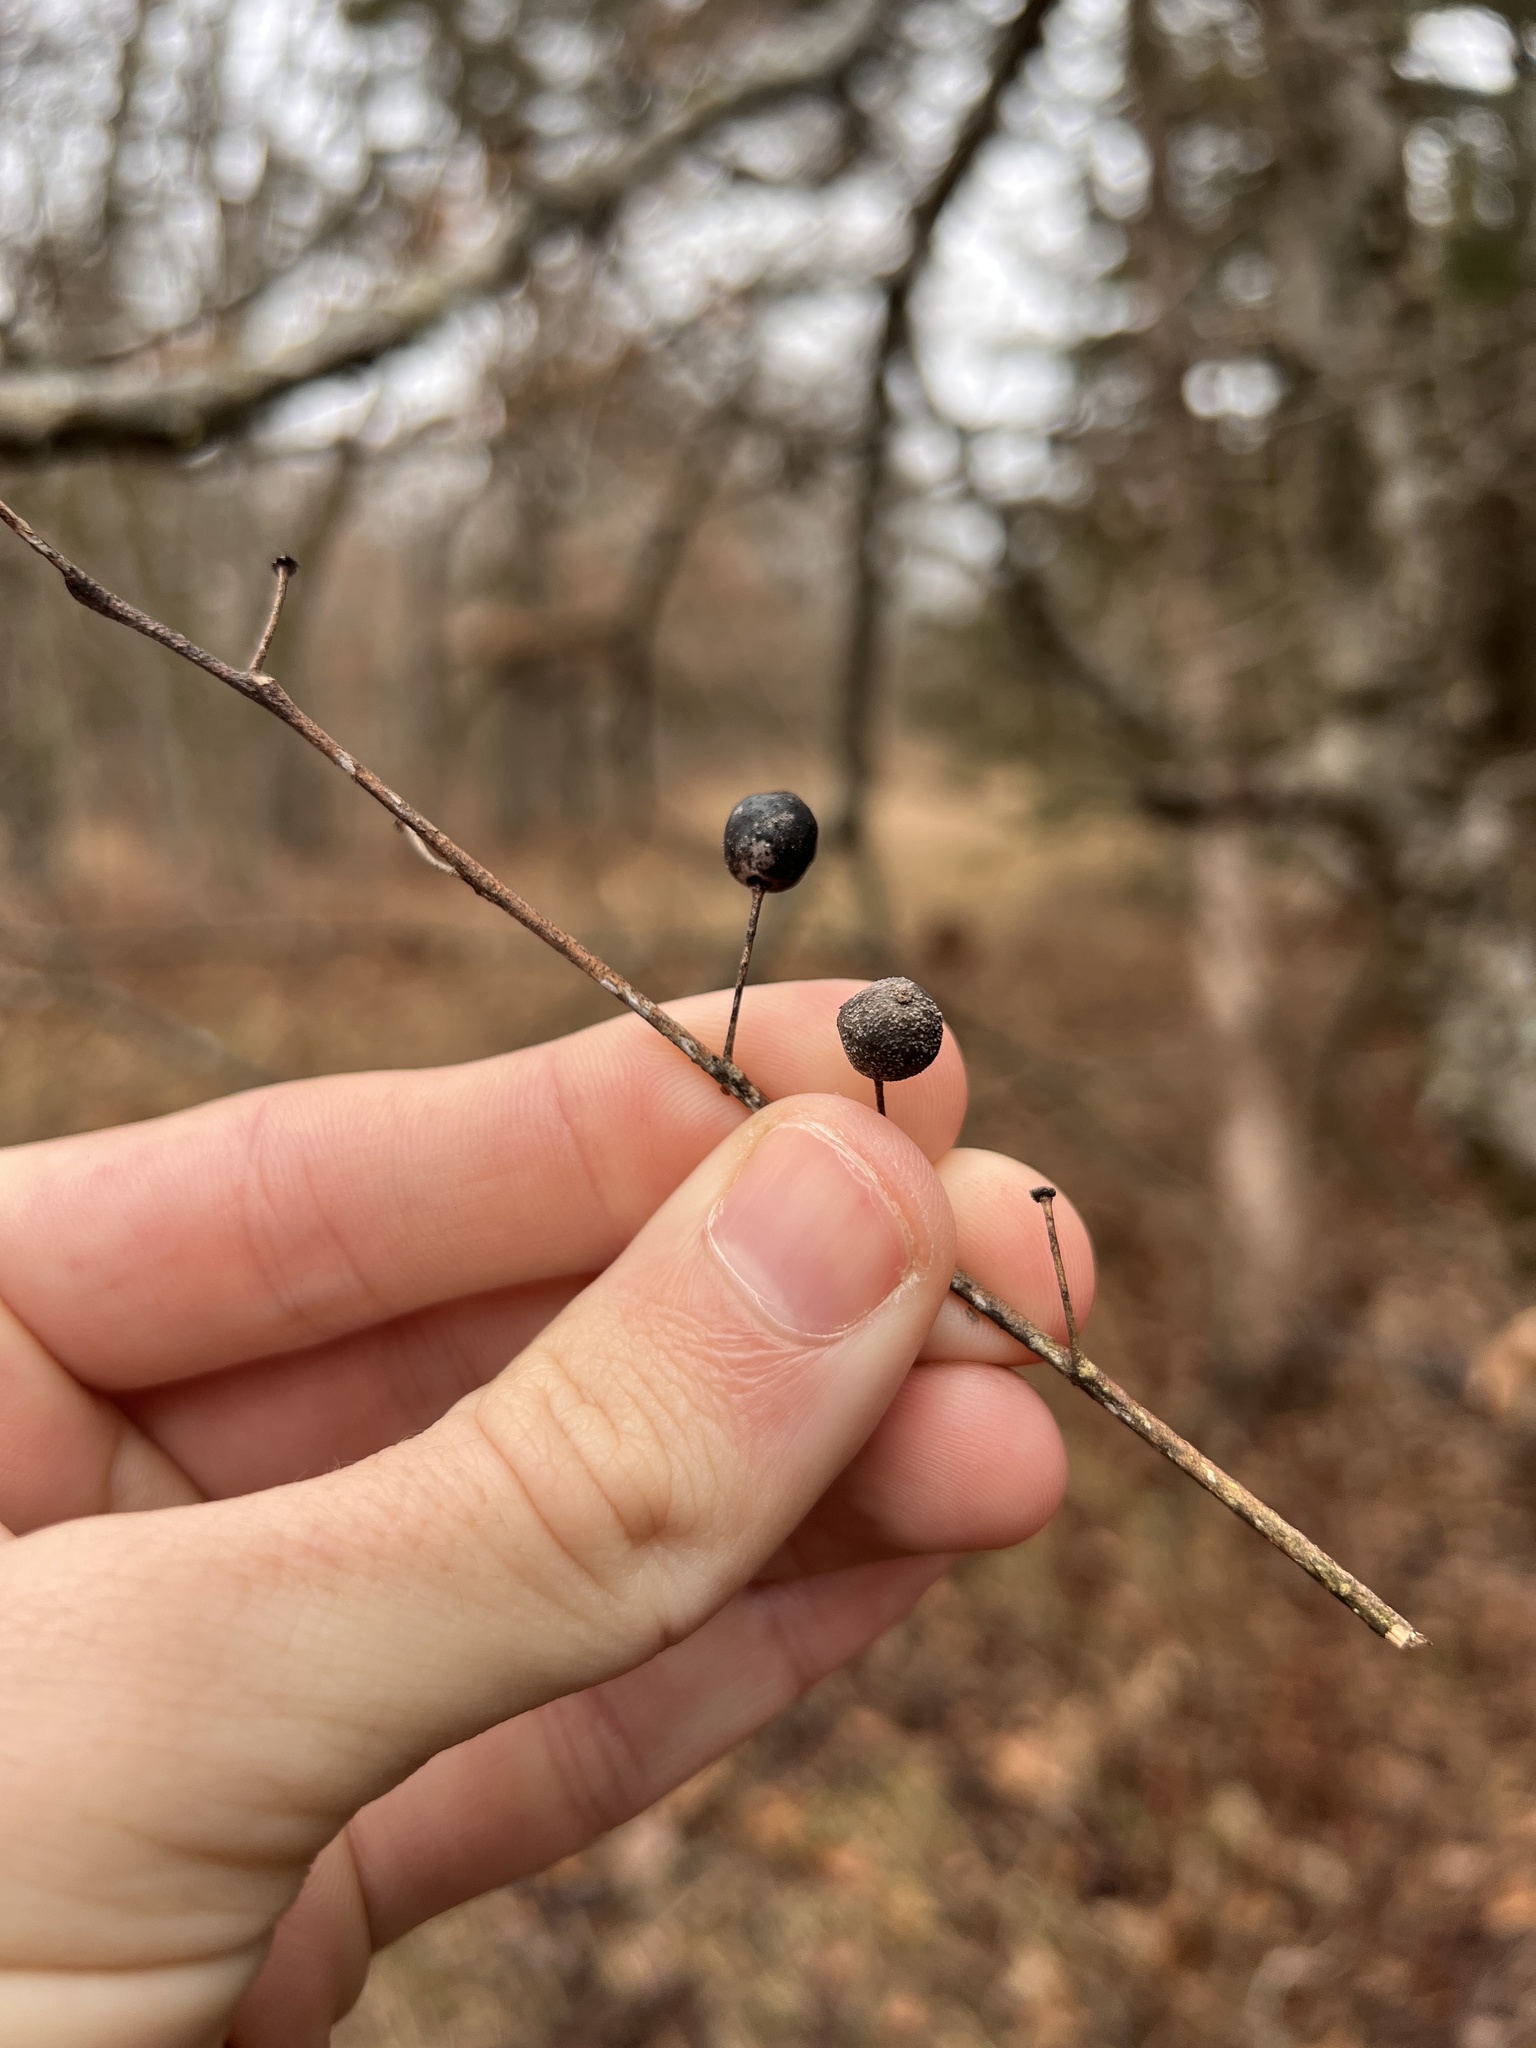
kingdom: Plantae
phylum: Tracheophyta
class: Magnoliopsida
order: Rosales
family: Cannabaceae
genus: Celtis
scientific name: Celtis occidentalis
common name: Common hackberry
